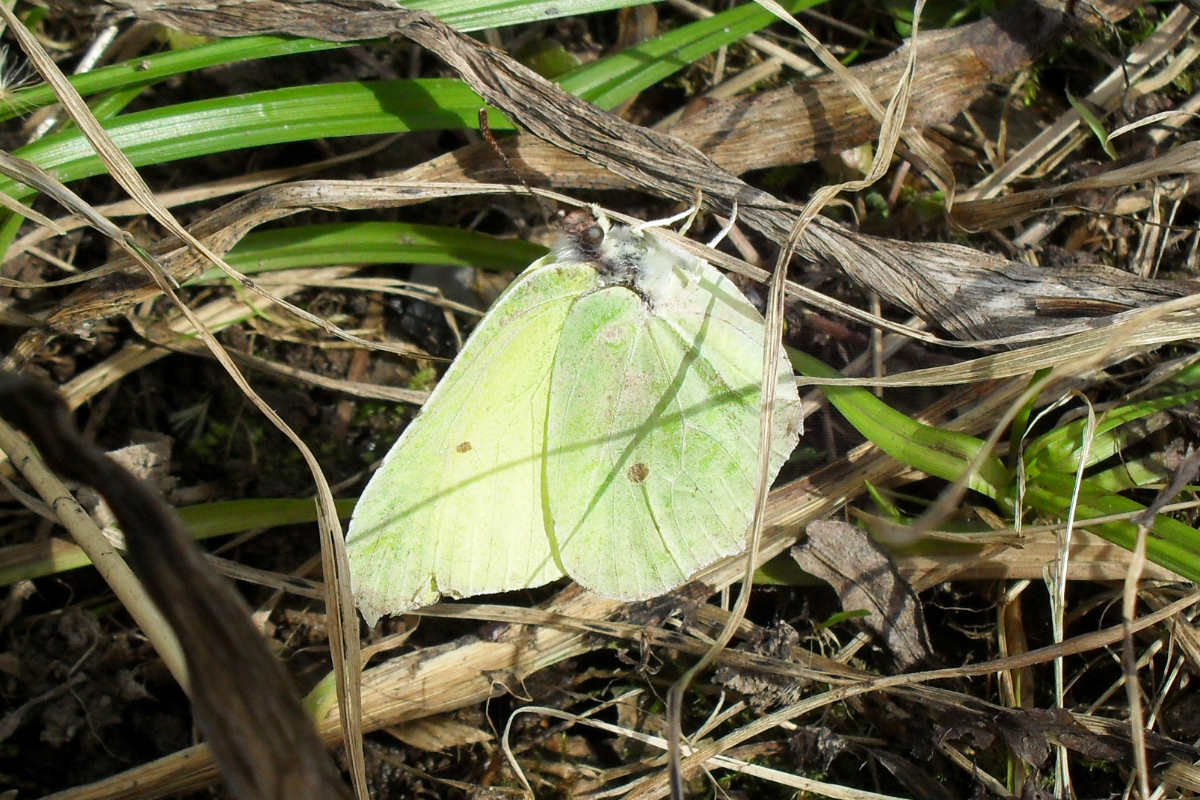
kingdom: Animalia
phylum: Arthropoda
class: Insecta
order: Lepidoptera
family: Pieridae
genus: Gonepteryx
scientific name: Gonepteryx rhamni
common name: Brimstone
